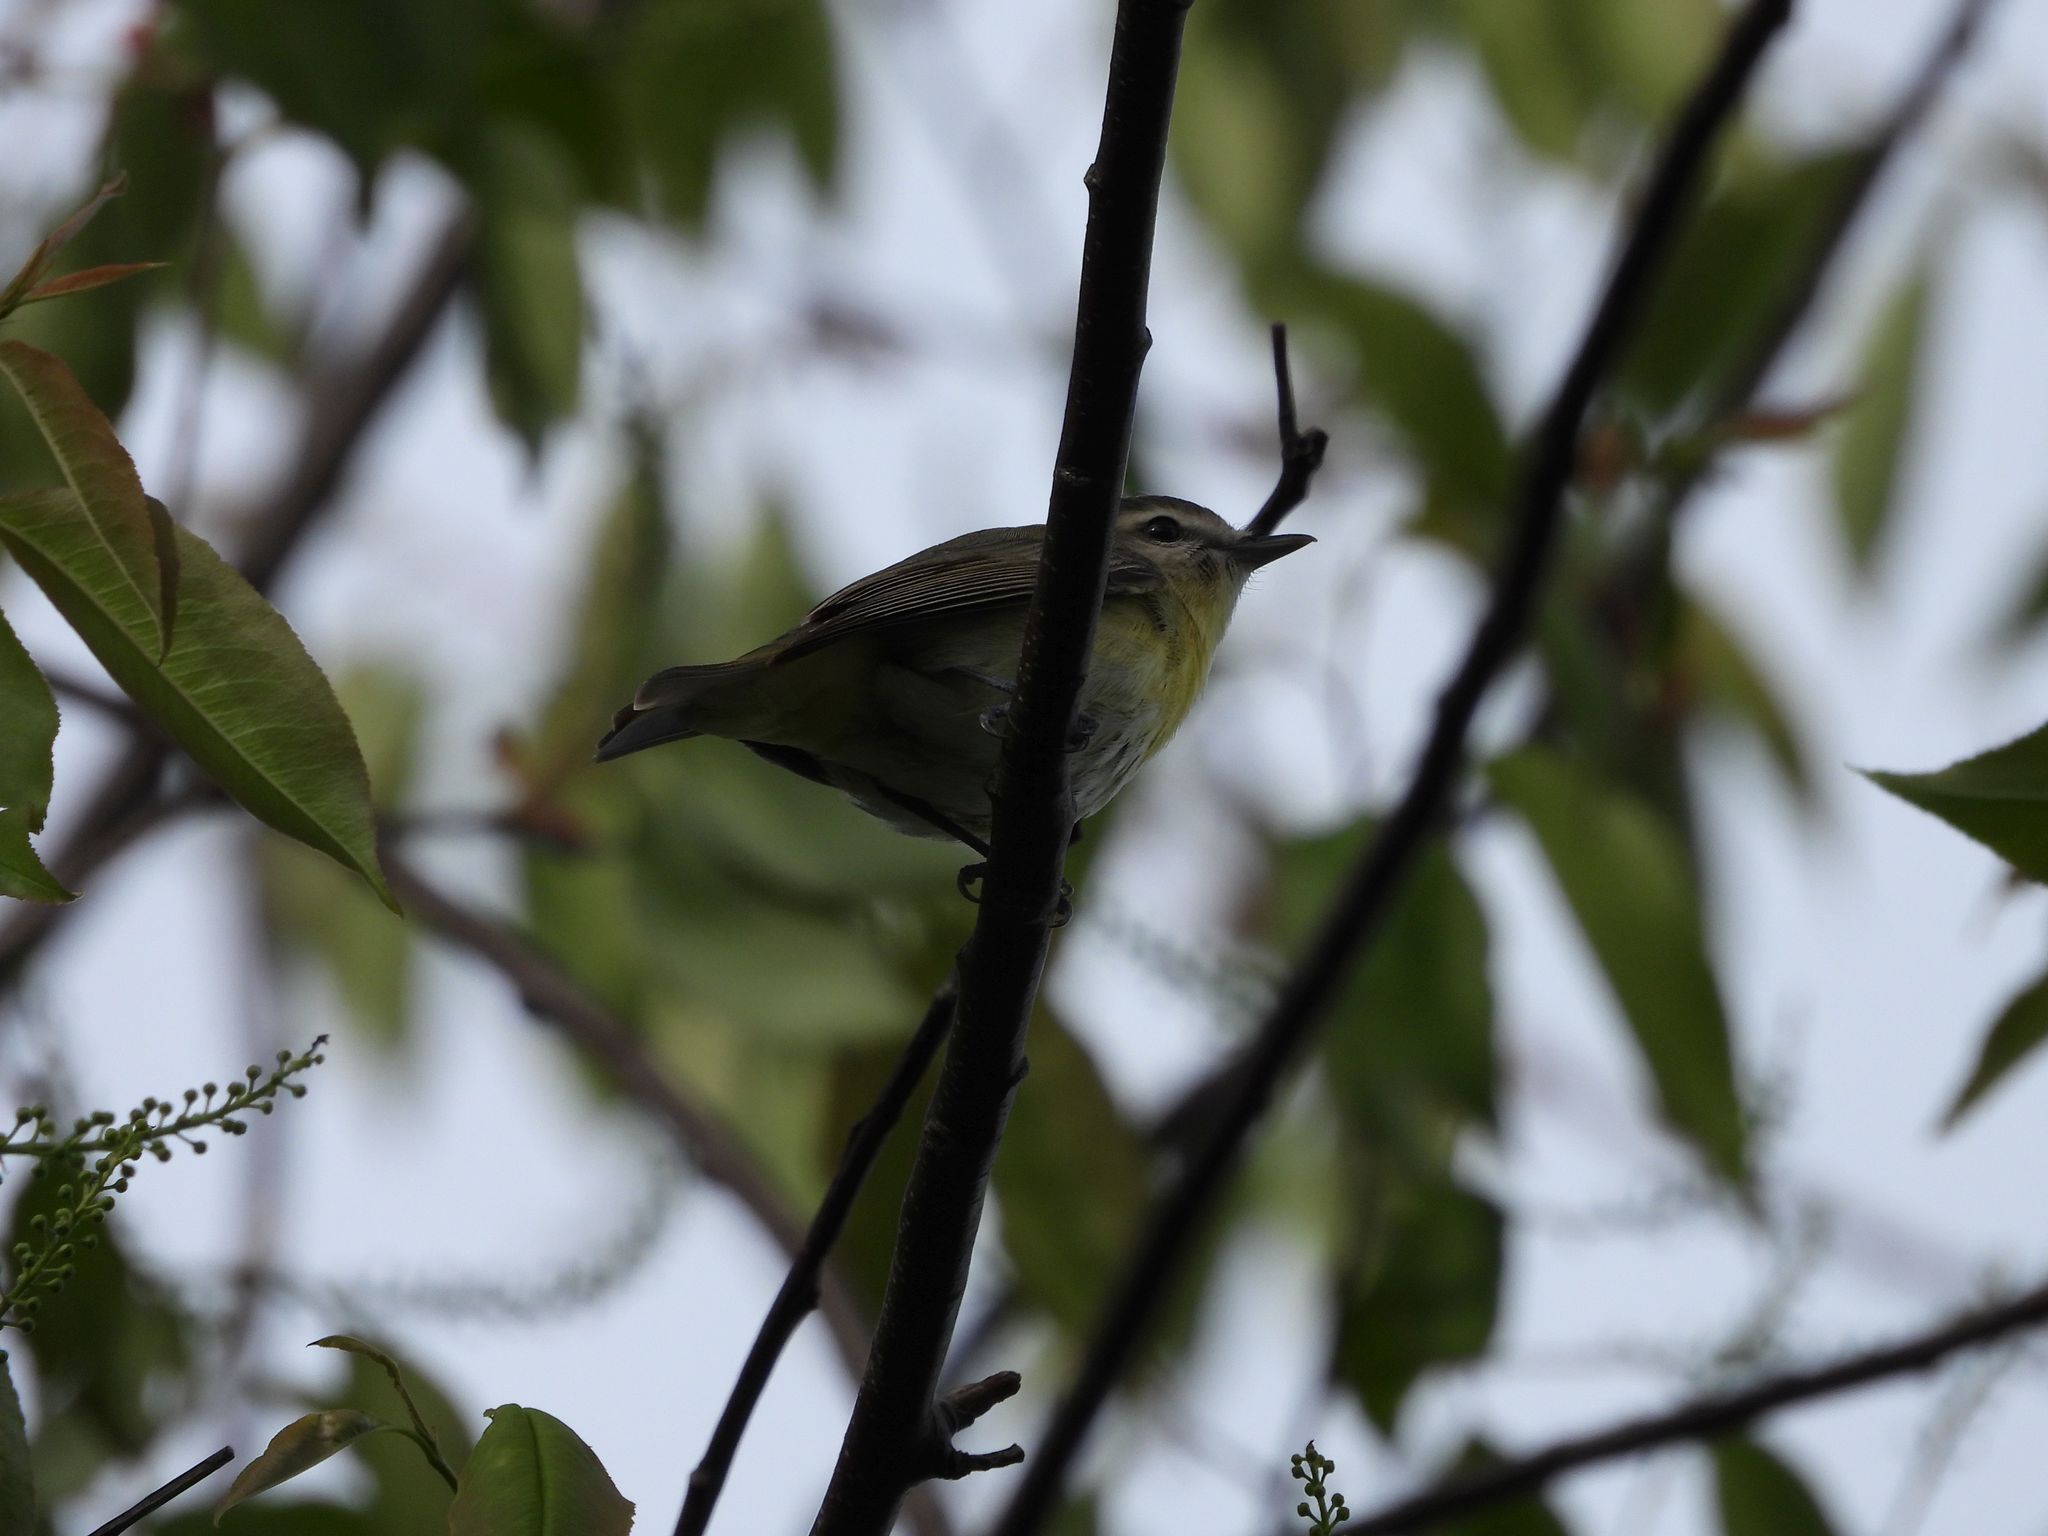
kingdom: Animalia
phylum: Chordata
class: Aves
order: Passeriformes
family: Vireonidae
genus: Vireo
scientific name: Vireo philadelphicus
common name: Philadelphia vireo
